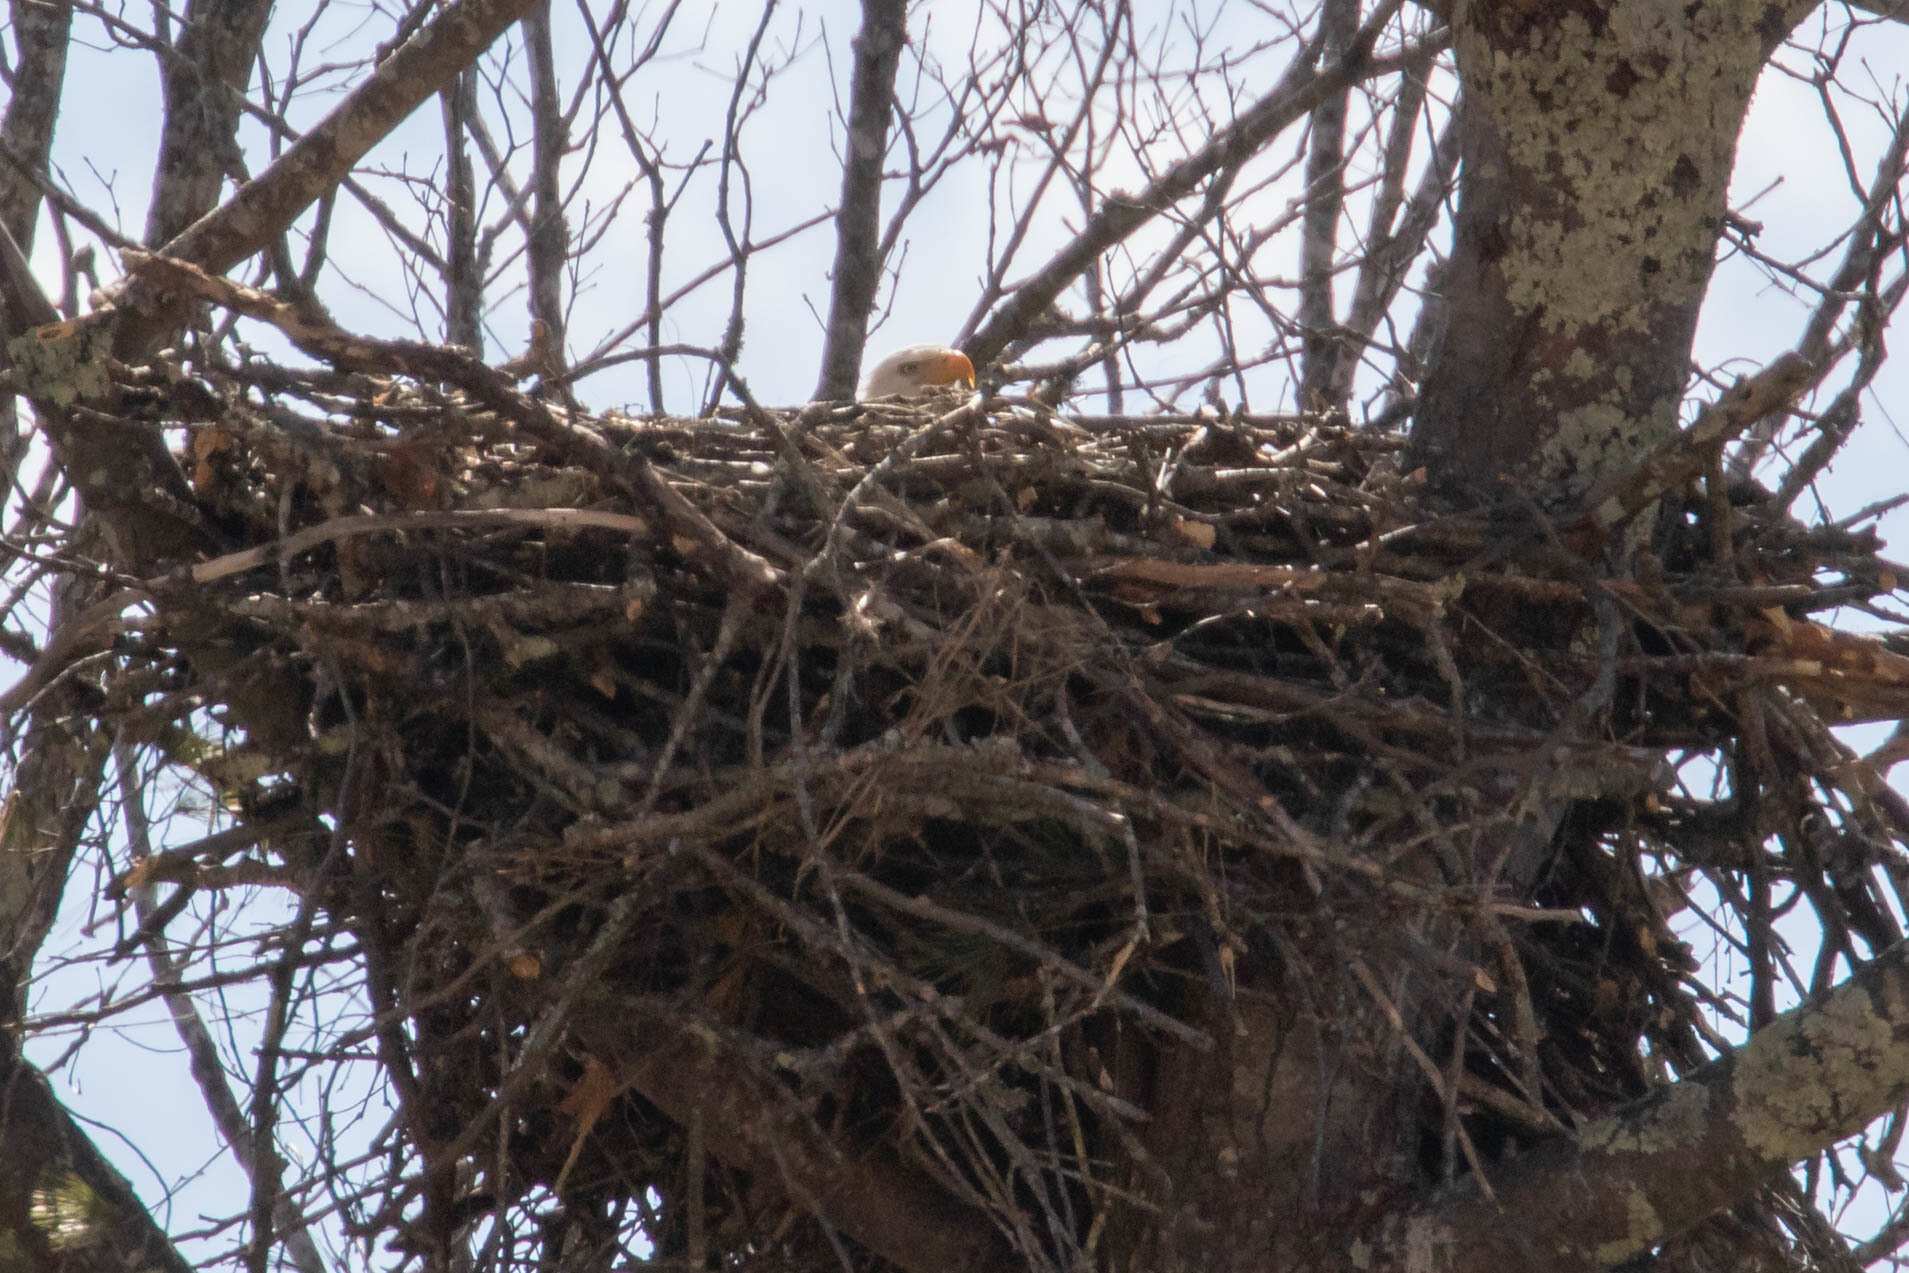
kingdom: Animalia
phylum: Chordata
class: Aves
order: Accipitriformes
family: Accipitridae
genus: Haliaeetus
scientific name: Haliaeetus leucocephalus
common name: Bald eagle
